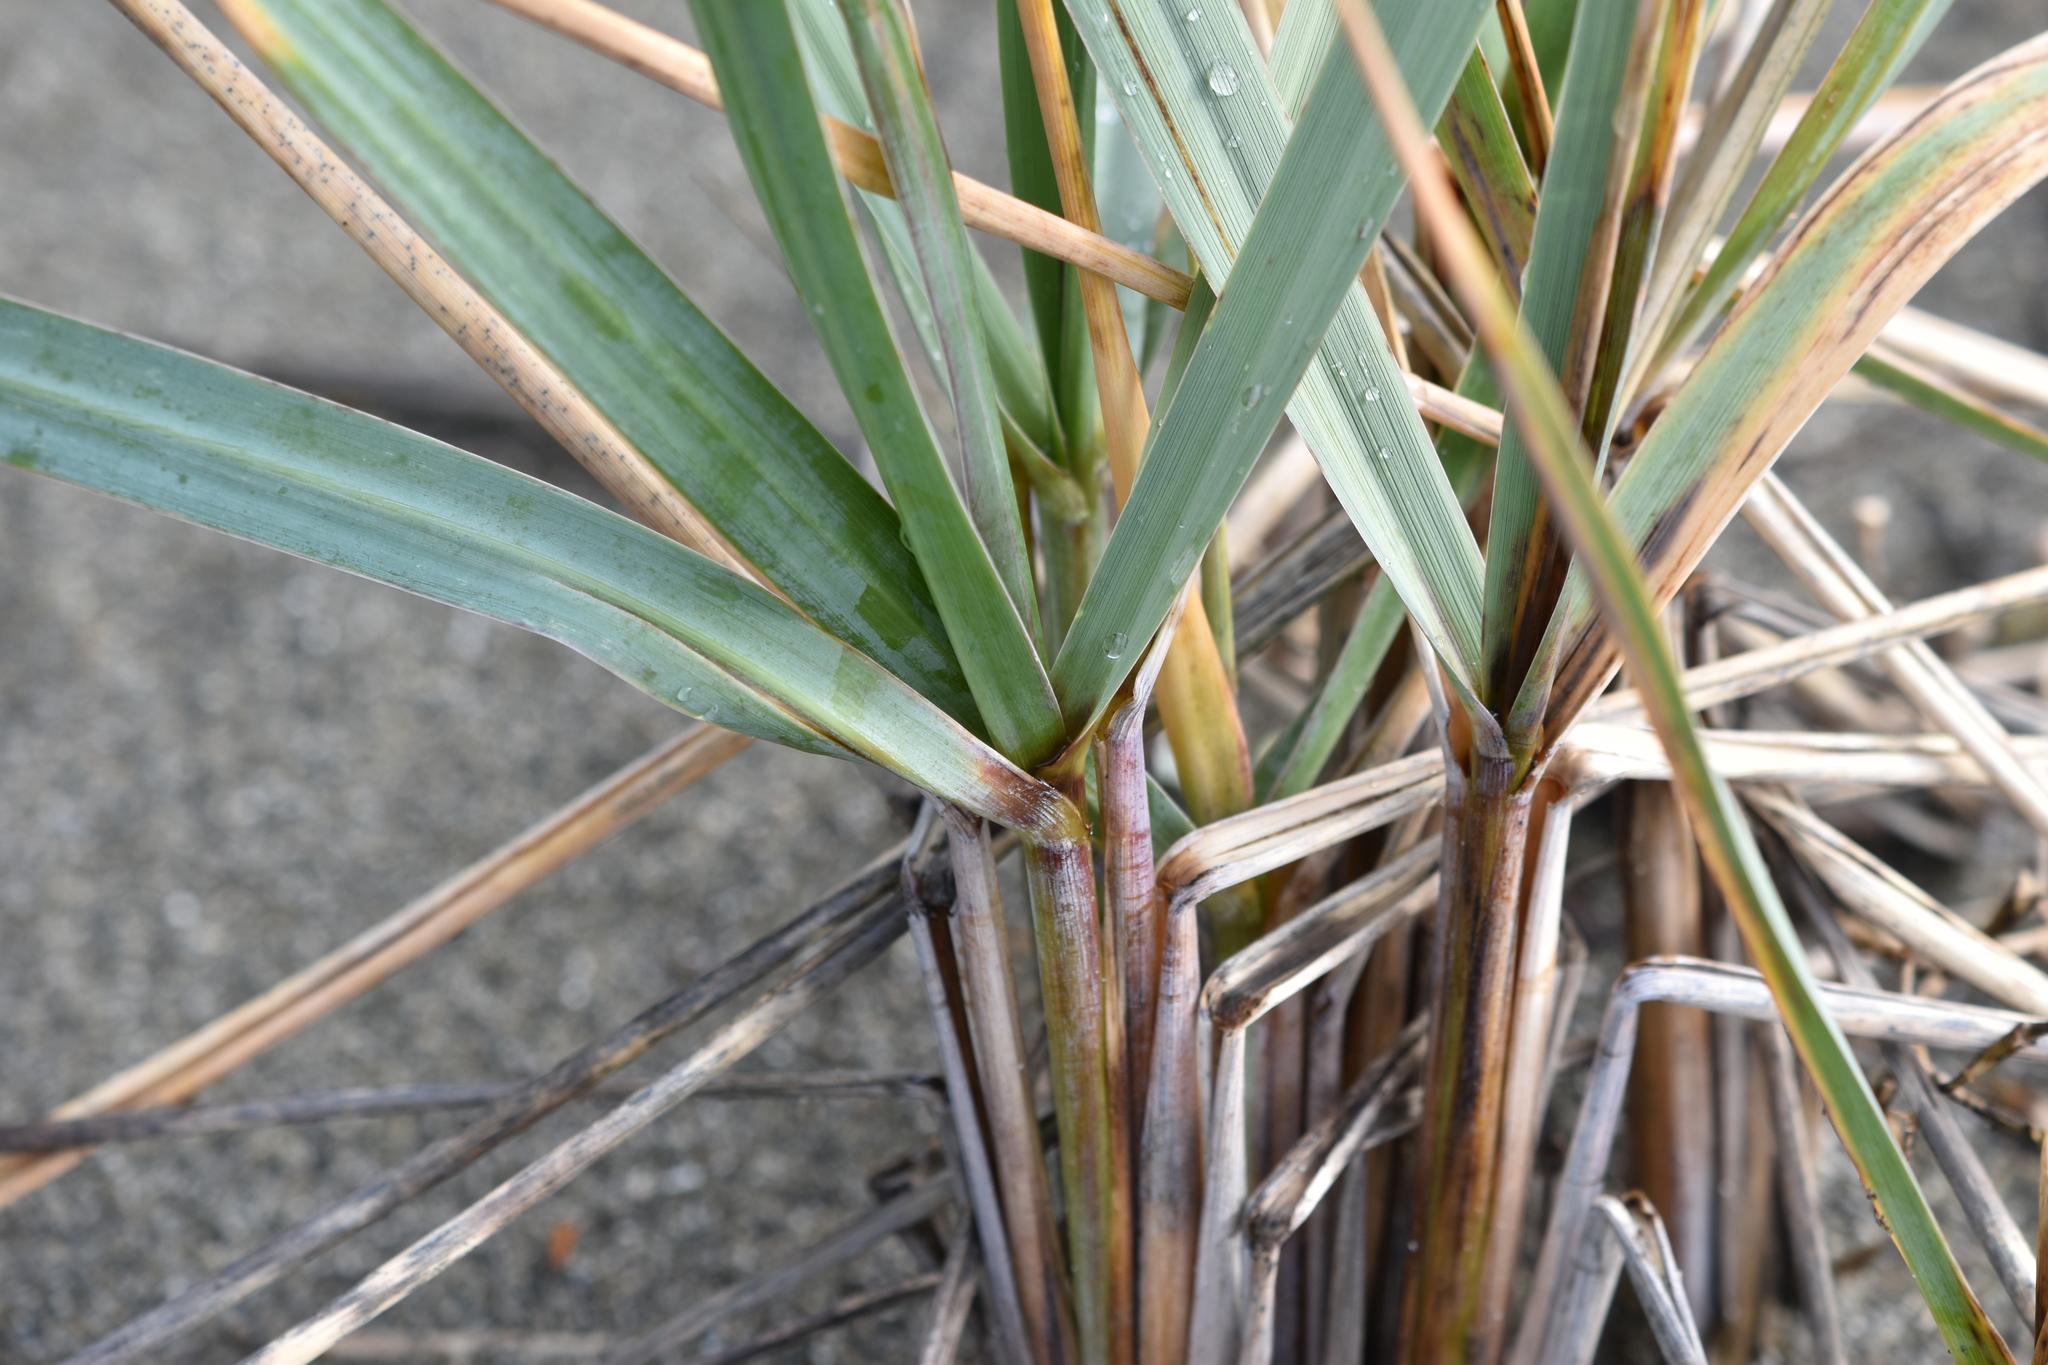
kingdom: Plantae
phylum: Tracheophyta
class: Liliopsida
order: Poales
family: Poaceae
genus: Leymus
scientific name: Leymus mollis
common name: American dune grass
